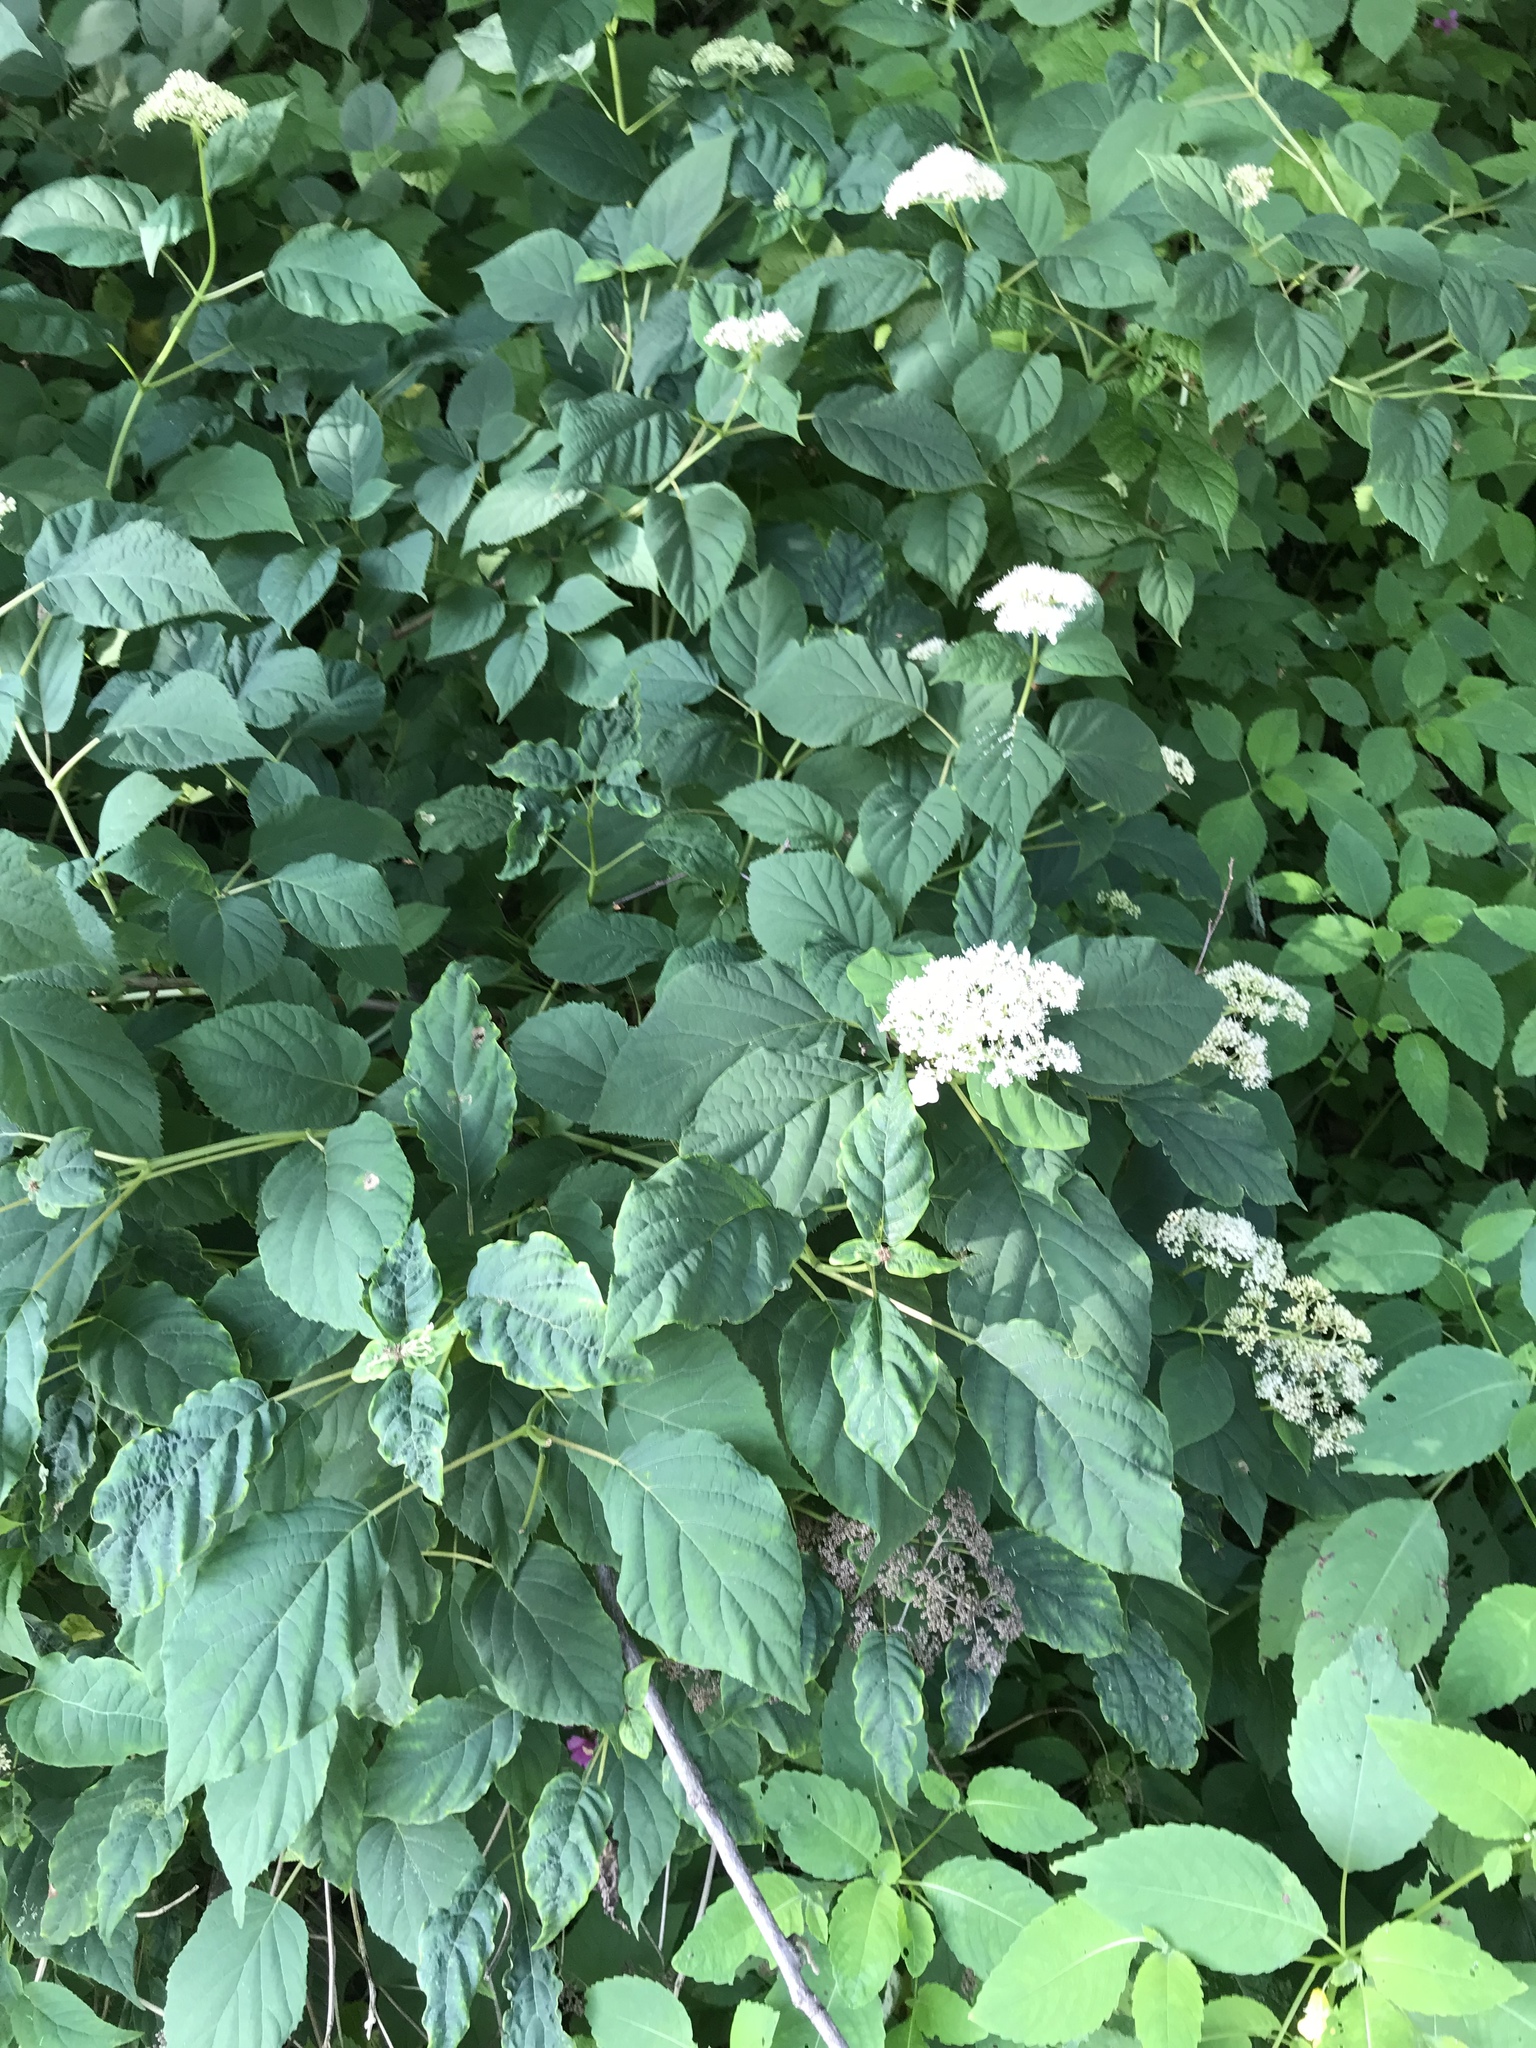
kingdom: Plantae
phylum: Tracheophyta
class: Magnoliopsida
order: Cornales
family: Hydrangeaceae
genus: Hydrangea
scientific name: Hydrangea arborescens
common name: Sevenbark
